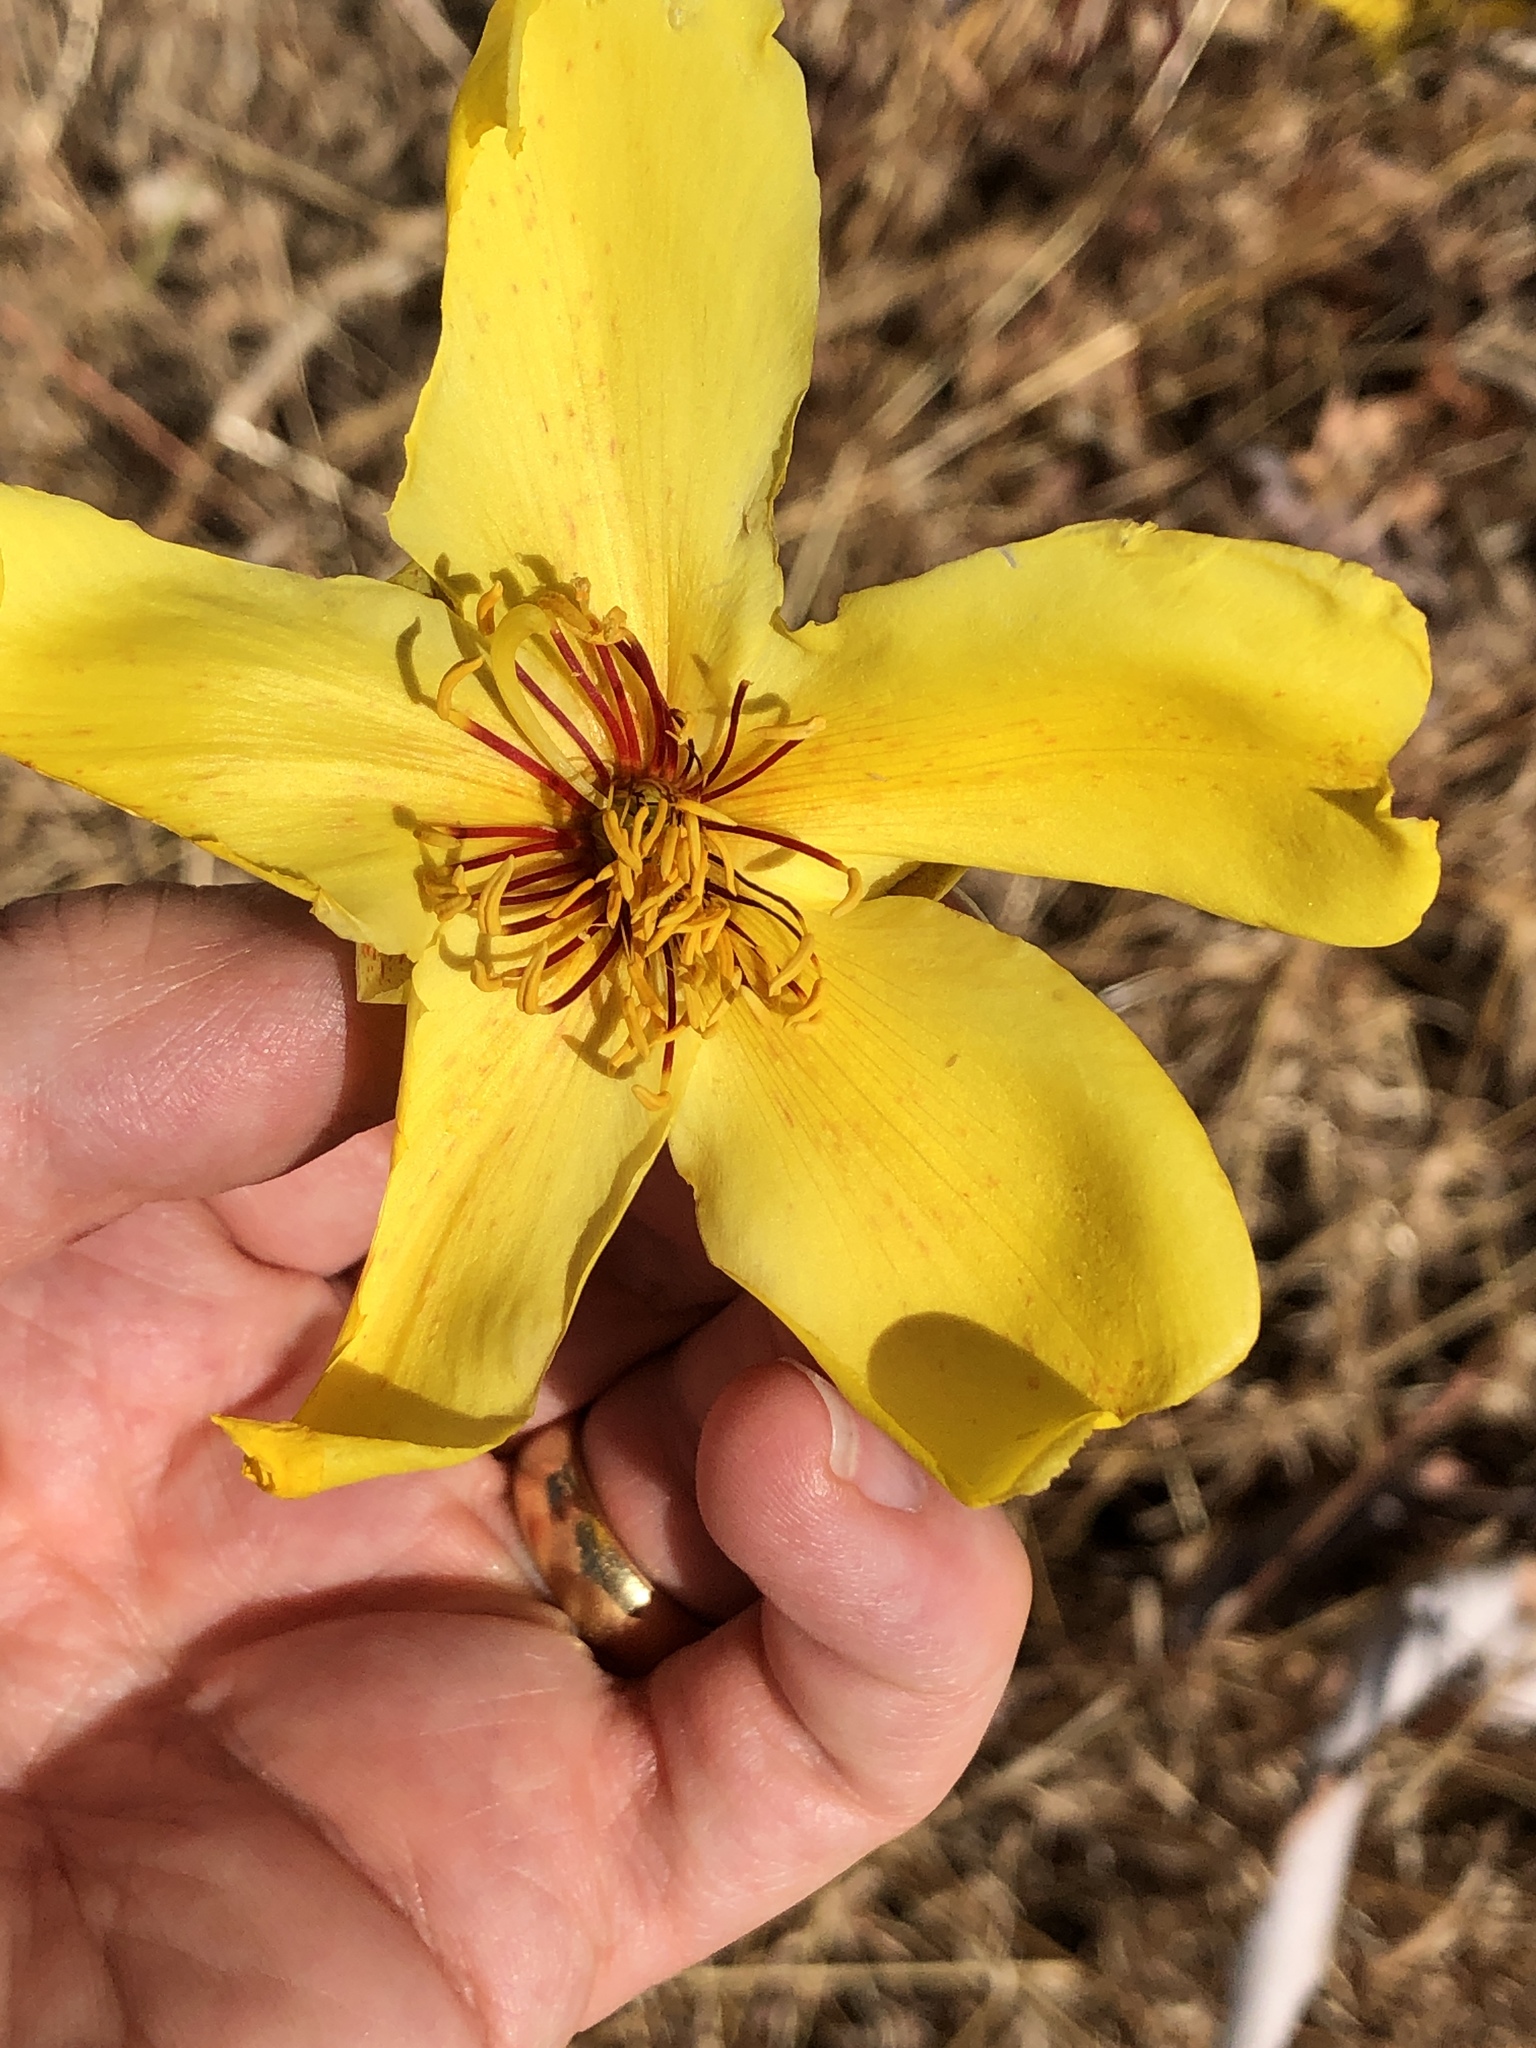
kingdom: Plantae
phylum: Tracheophyta
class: Magnoliopsida
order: Malvales
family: Cochlospermaceae
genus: Cochlospermum
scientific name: Cochlospermum gillivraei
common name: Cottontree
